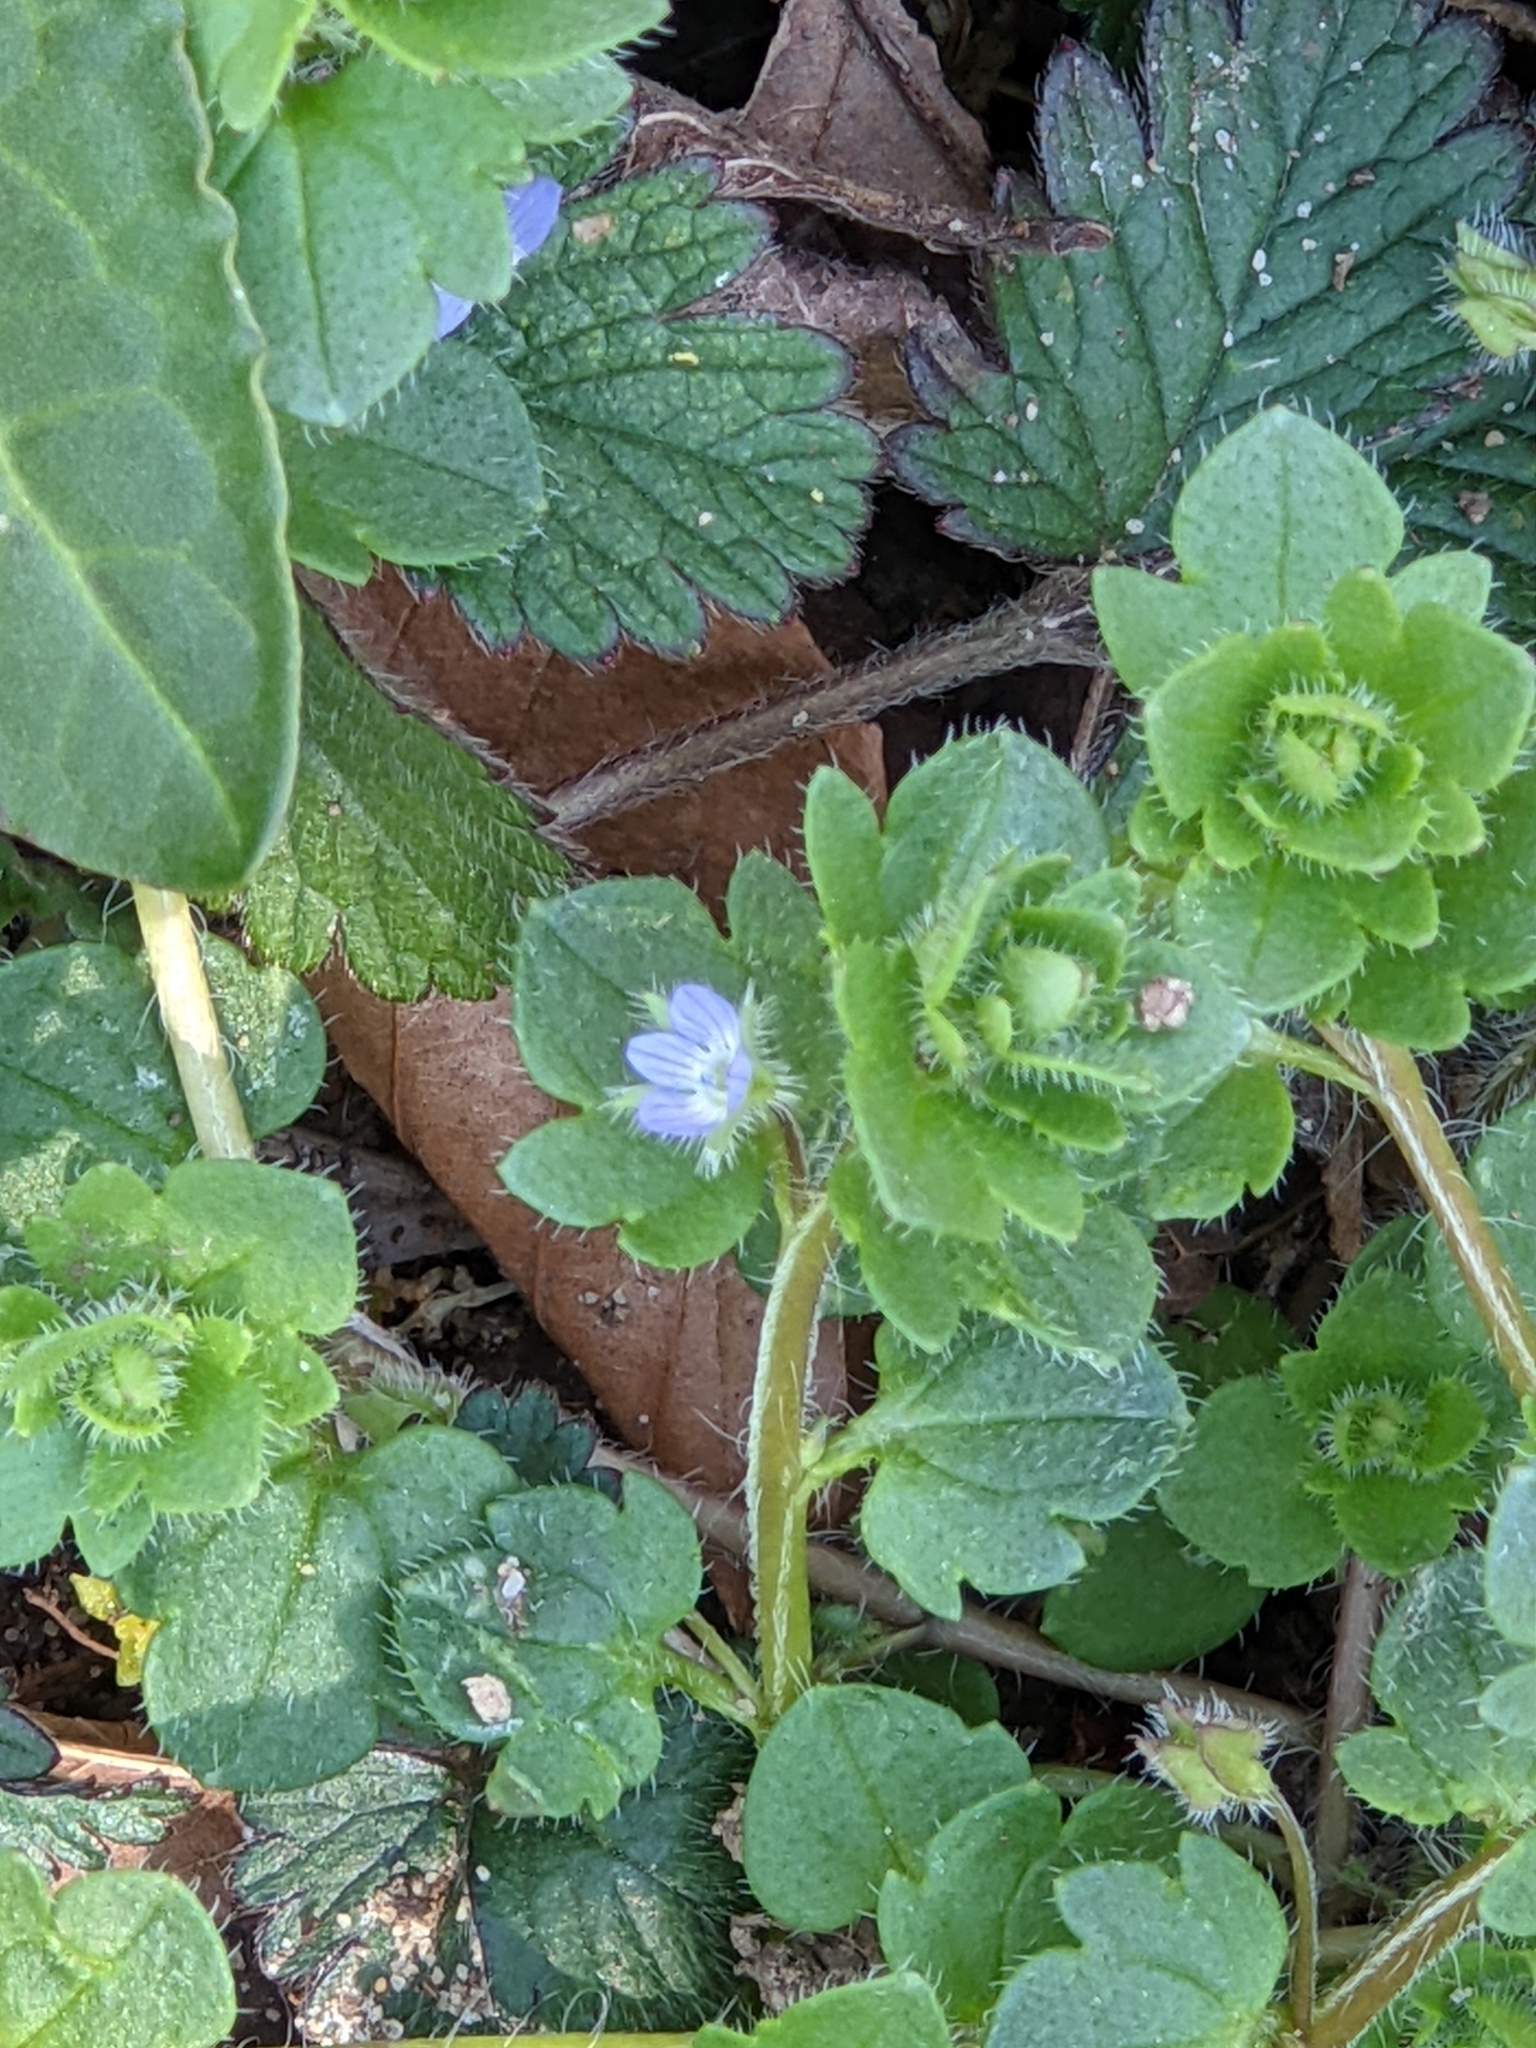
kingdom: Plantae
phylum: Tracheophyta
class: Magnoliopsida
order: Lamiales
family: Plantaginaceae
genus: Veronica
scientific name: Veronica hederifolia
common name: Ivy-leaved speedwell
